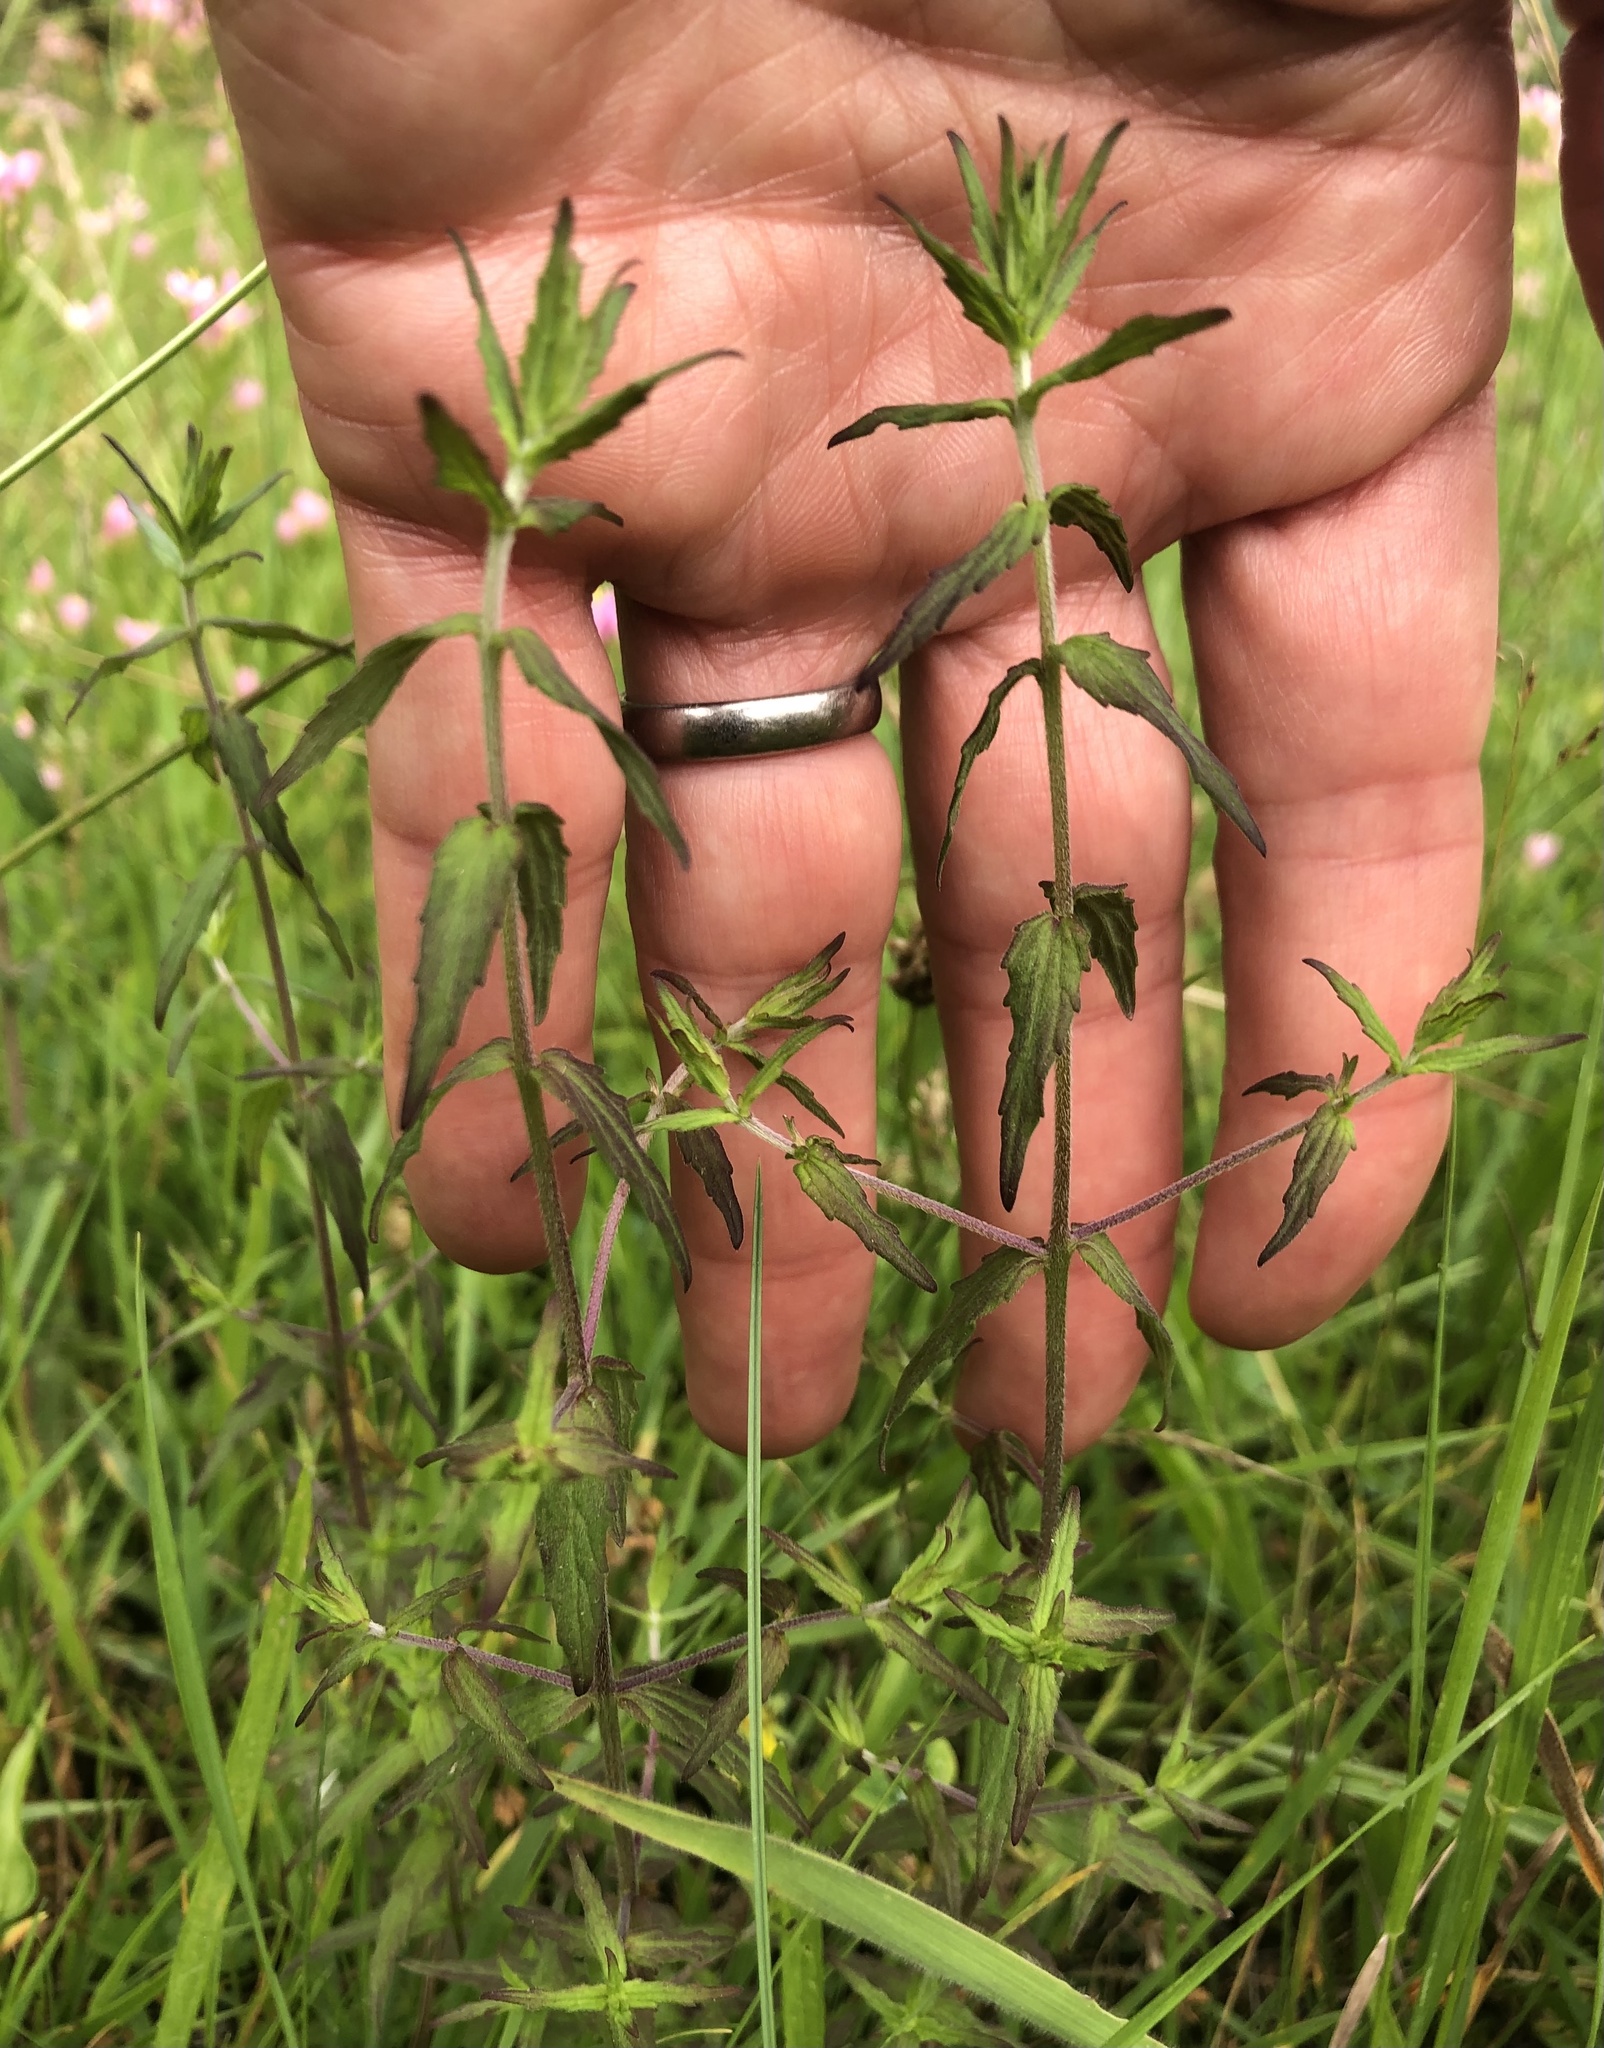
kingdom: Plantae
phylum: Tracheophyta
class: Magnoliopsida
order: Lamiales
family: Orobanchaceae
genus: Odontites
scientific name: Odontites vernus
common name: Red bartsia
